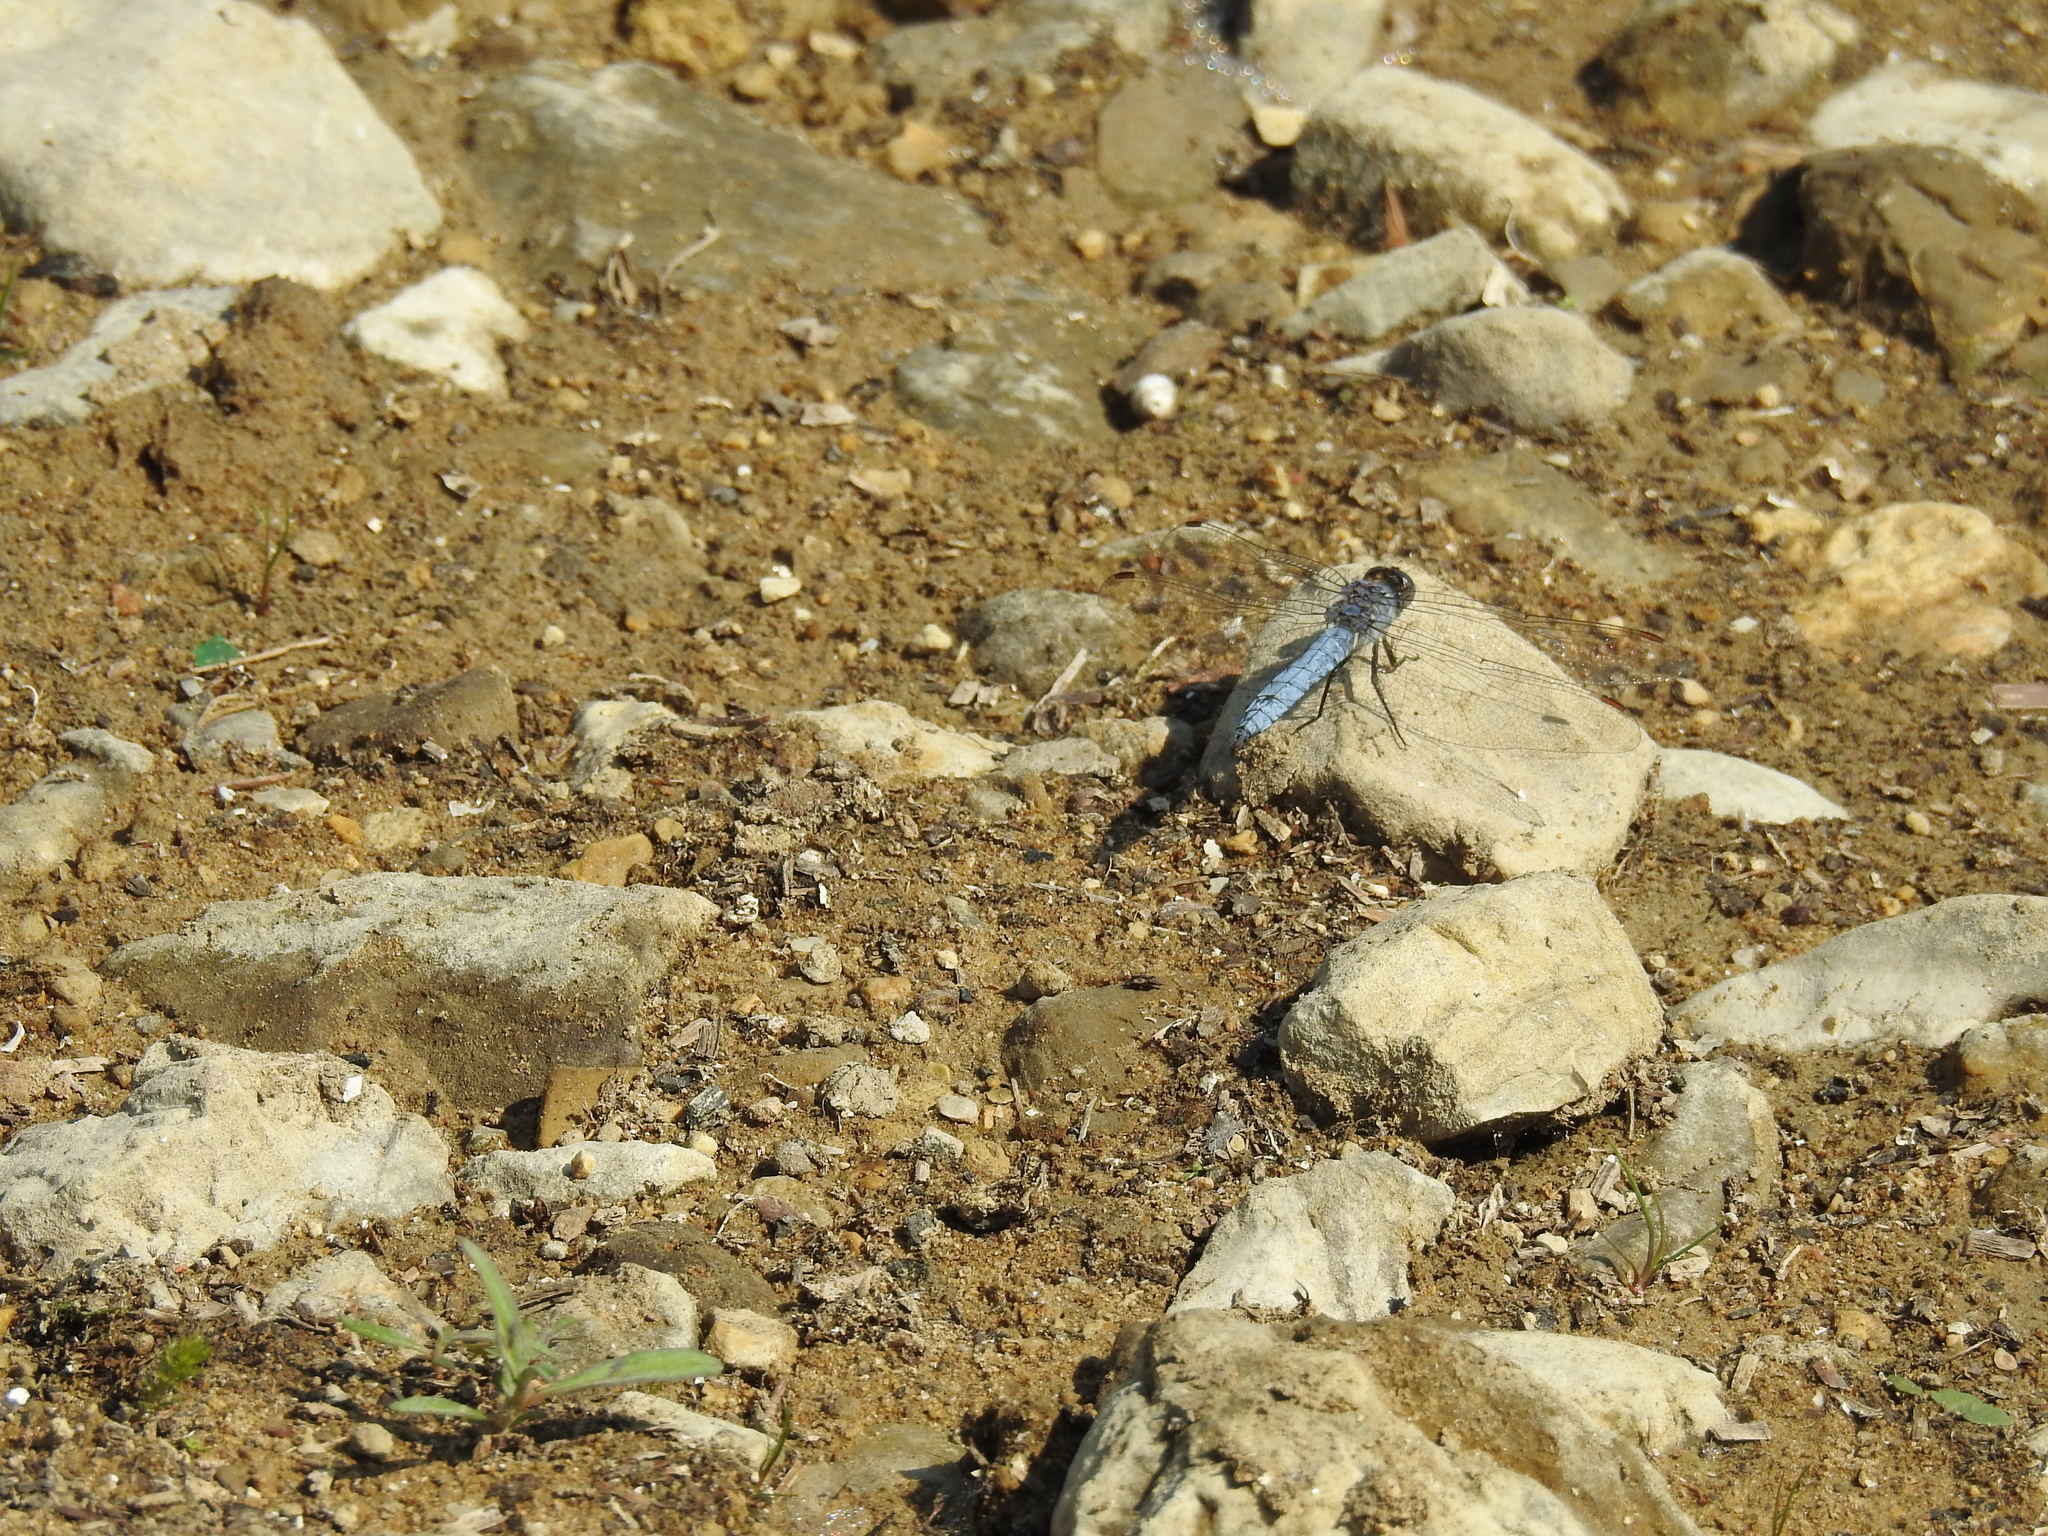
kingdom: Animalia
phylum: Arthropoda
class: Insecta
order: Odonata
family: Libellulidae
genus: Orthetrum
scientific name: Orthetrum brunneum
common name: Southern skimmer
